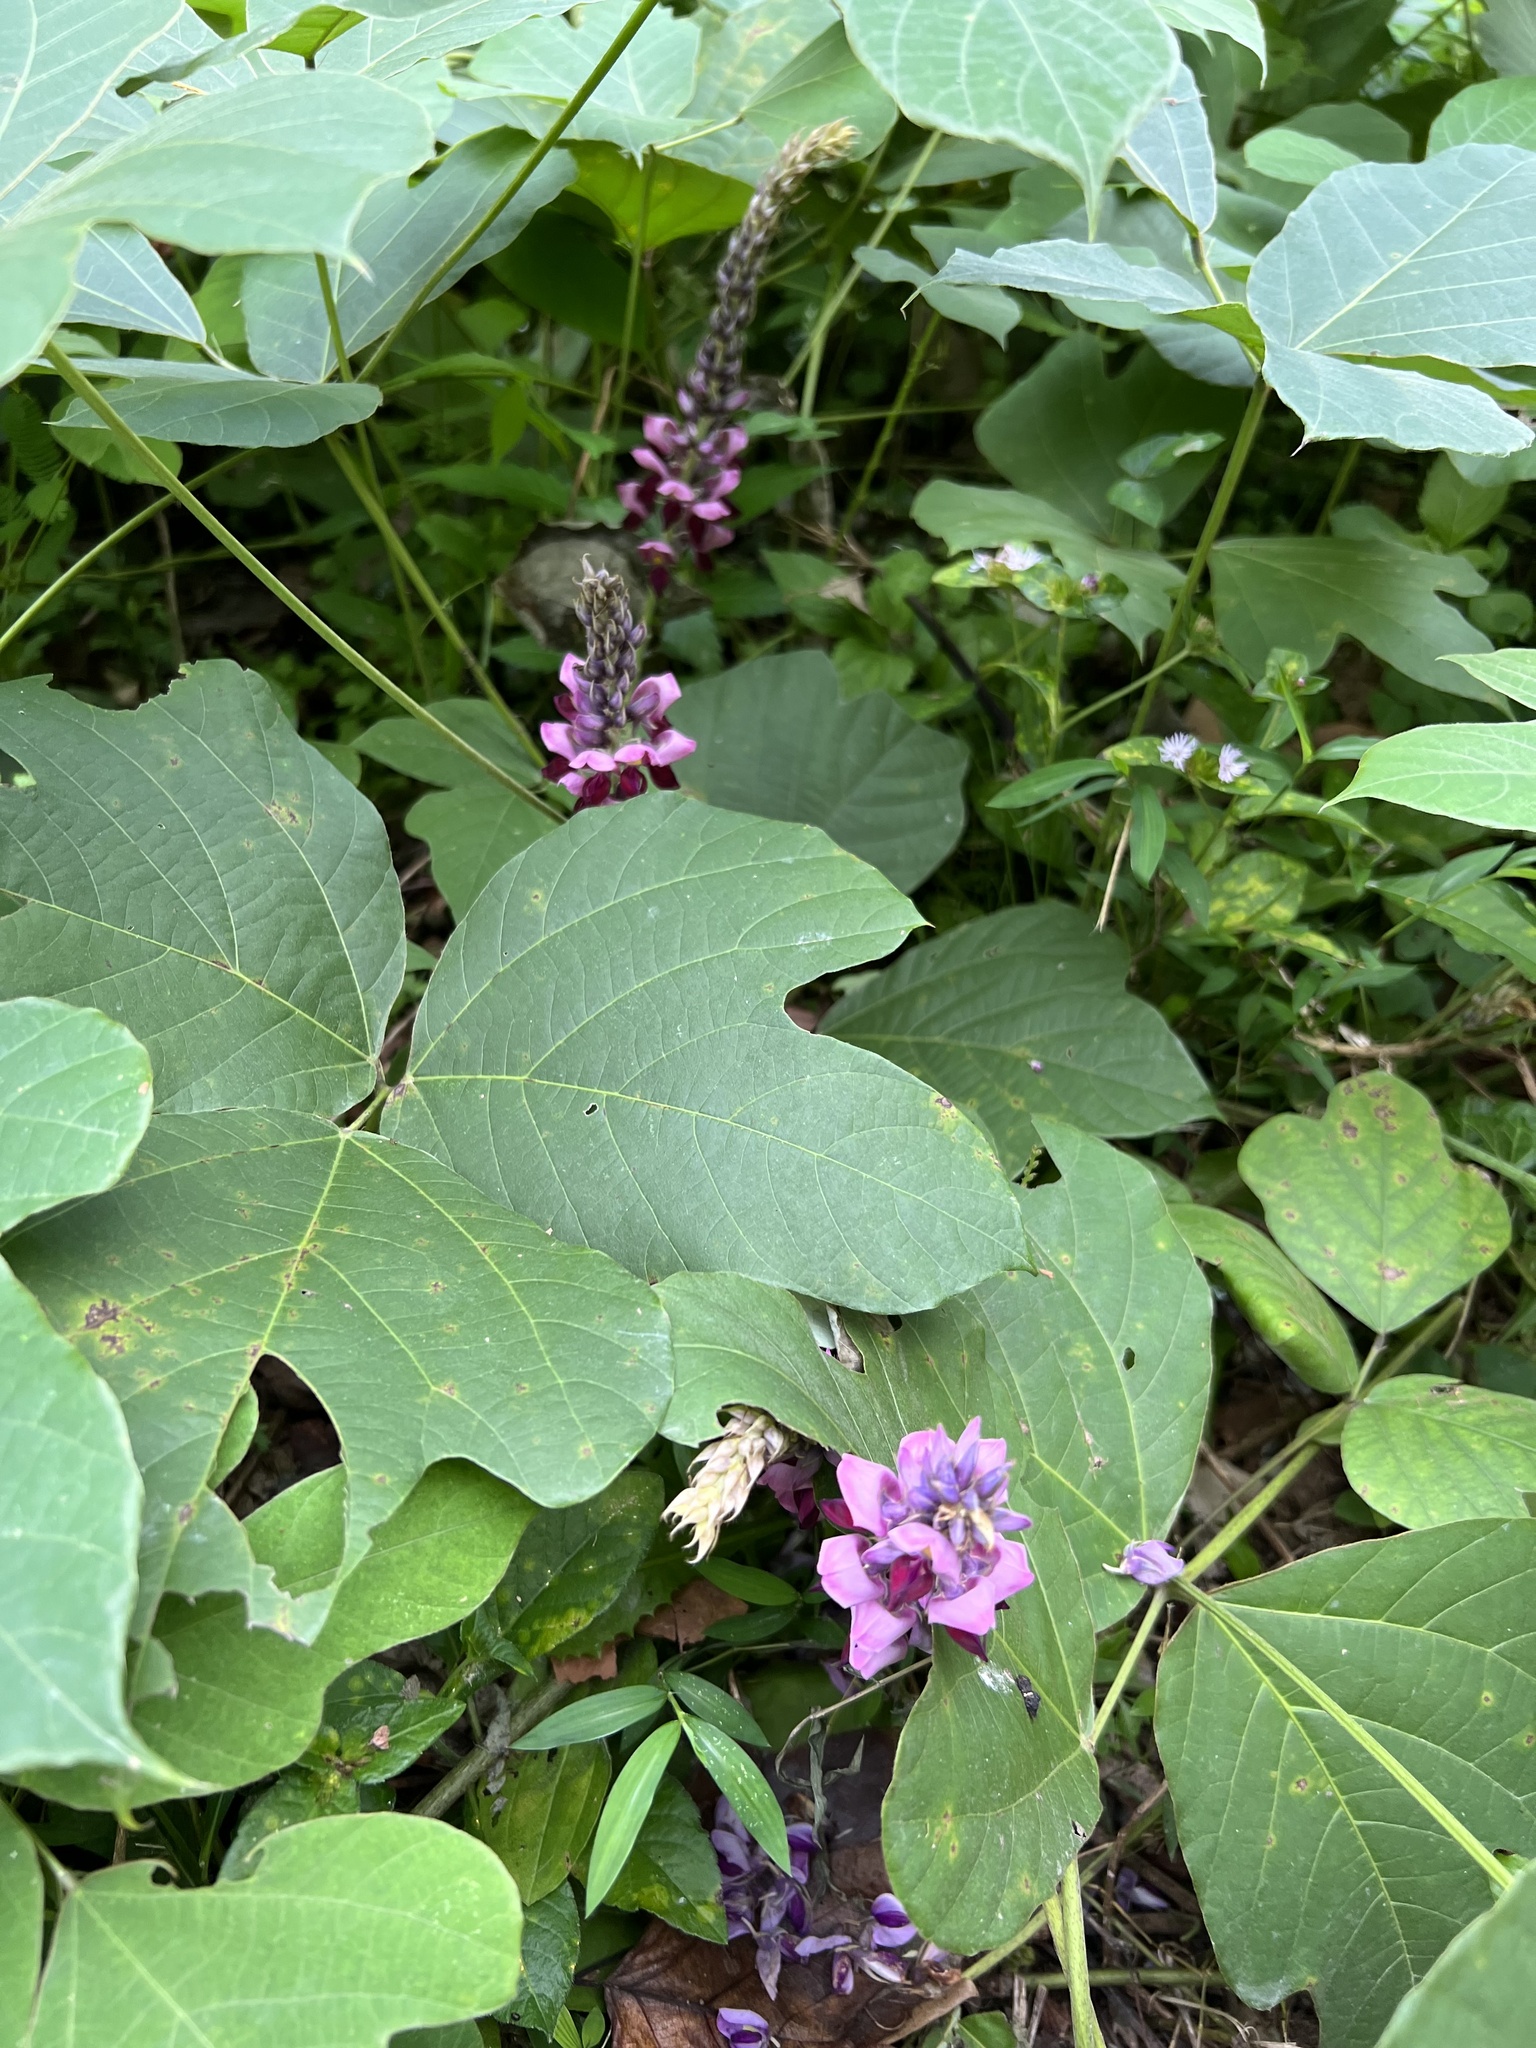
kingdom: Plantae
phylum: Tracheophyta
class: Magnoliopsida
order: Fabales
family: Fabaceae
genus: Pueraria
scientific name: Pueraria montana
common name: Kudzu
